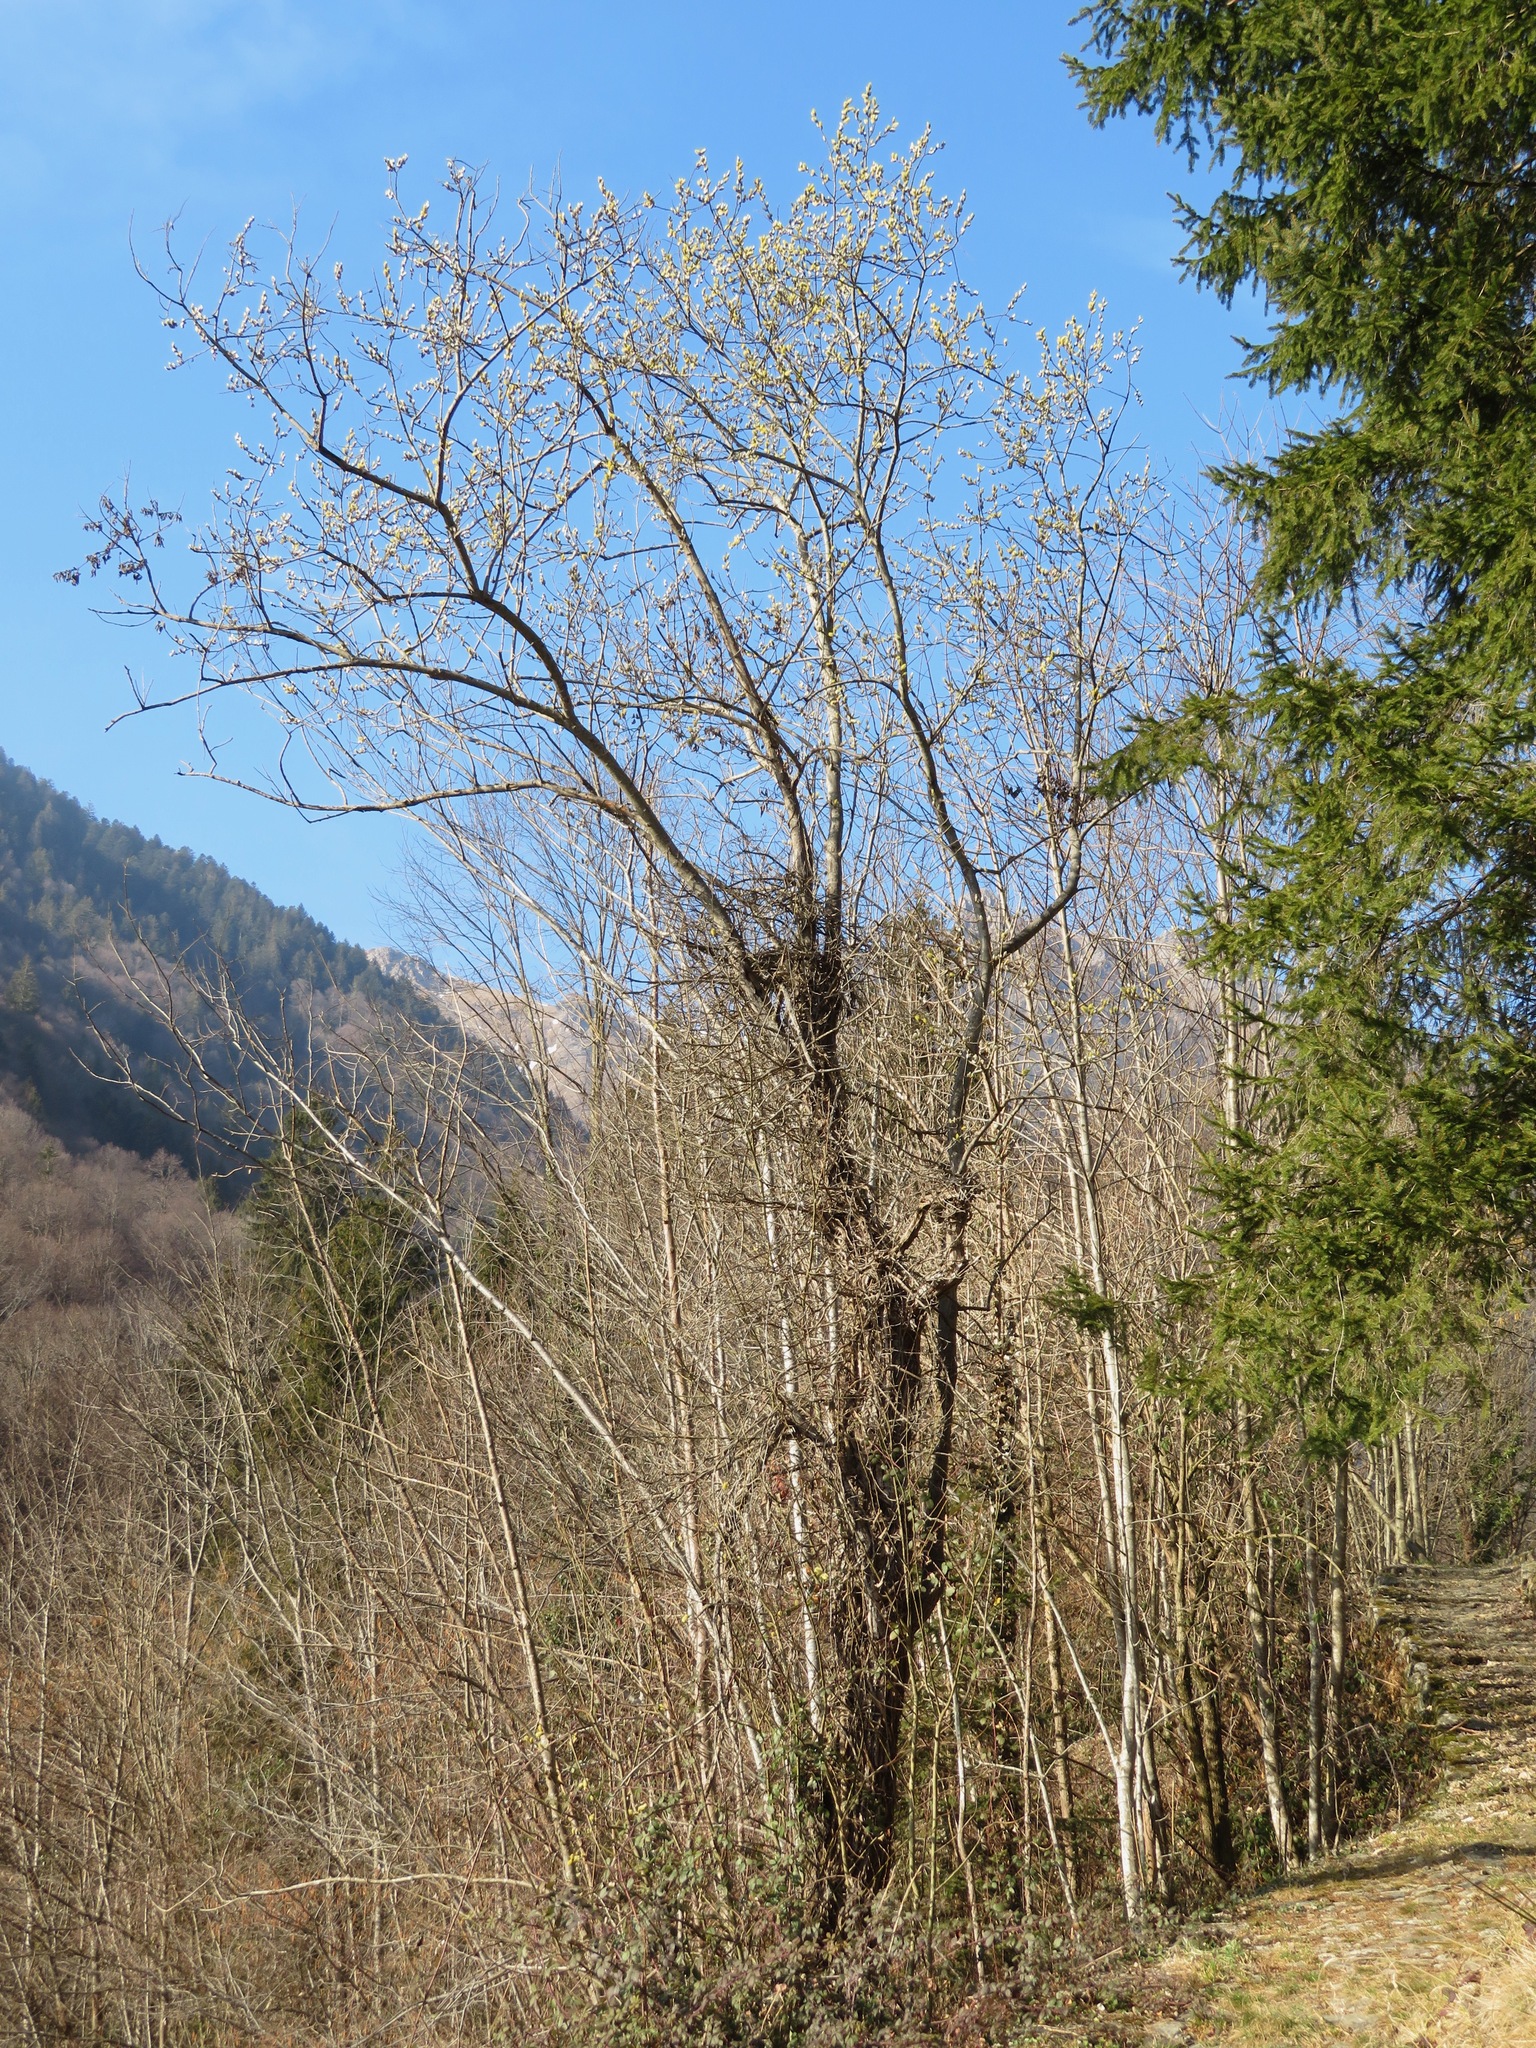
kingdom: Plantae
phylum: Tracheophyta
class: Magnoliopsida
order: Malpighiales
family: Salicaceae
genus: Salix
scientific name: Salix caprea
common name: Goat willow
